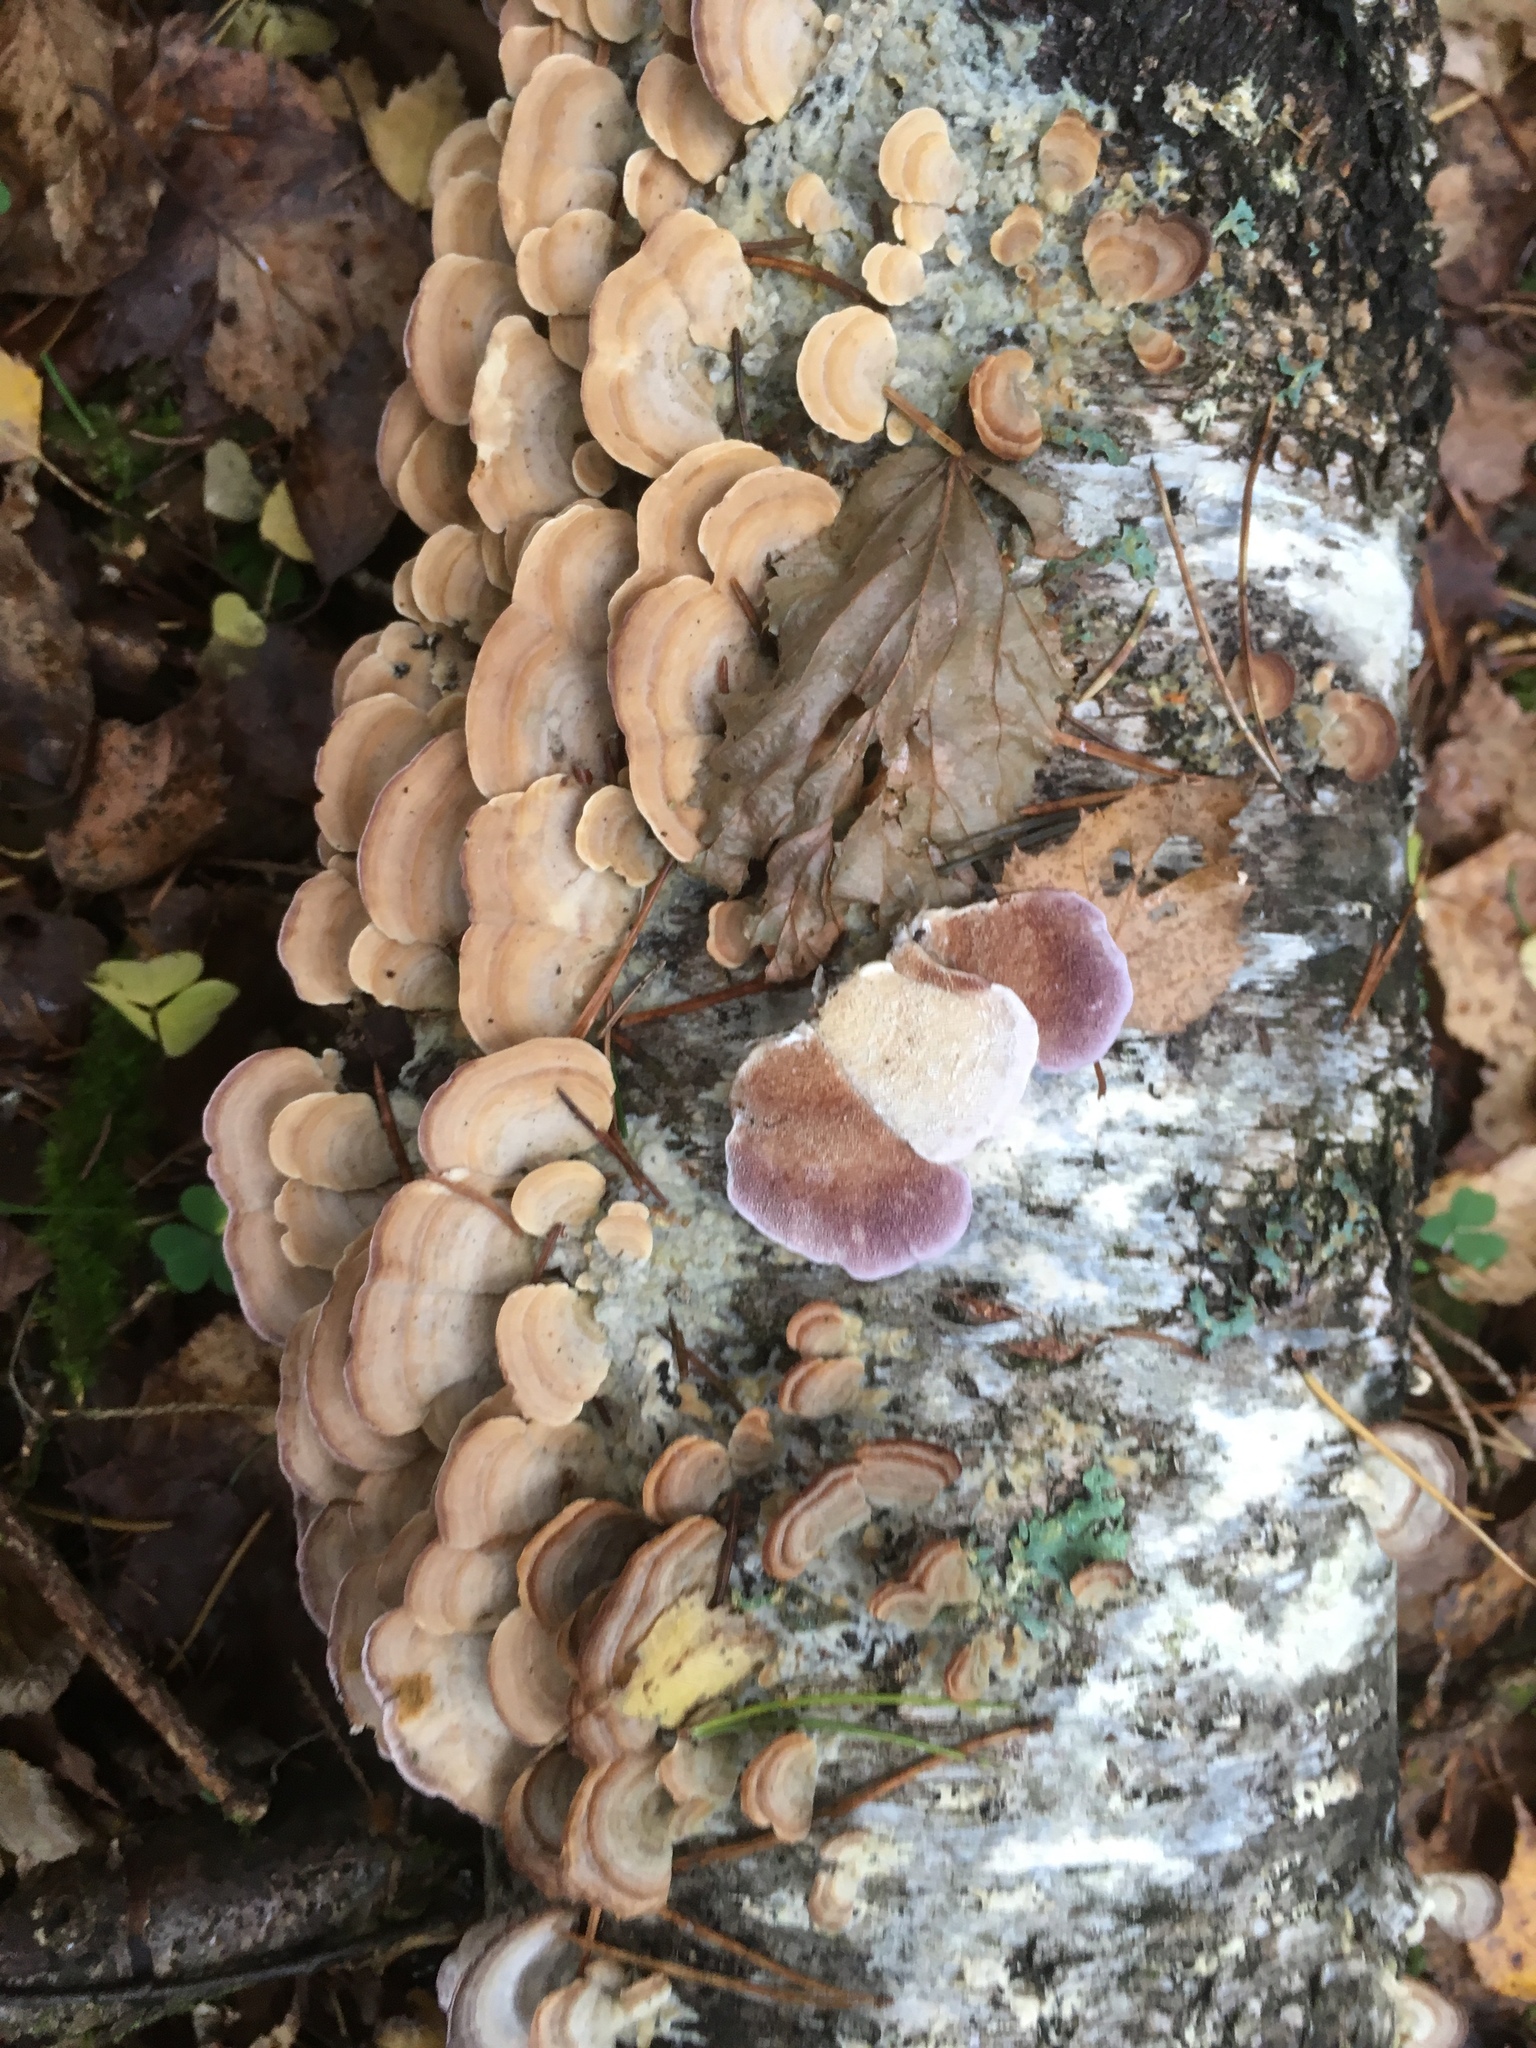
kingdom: Fungi
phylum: Basidiomycota
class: Agaricomycetes
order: Hymenochaetales
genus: Trichaptum
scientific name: Trichaptum biforme
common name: Violet-toothed polypore
